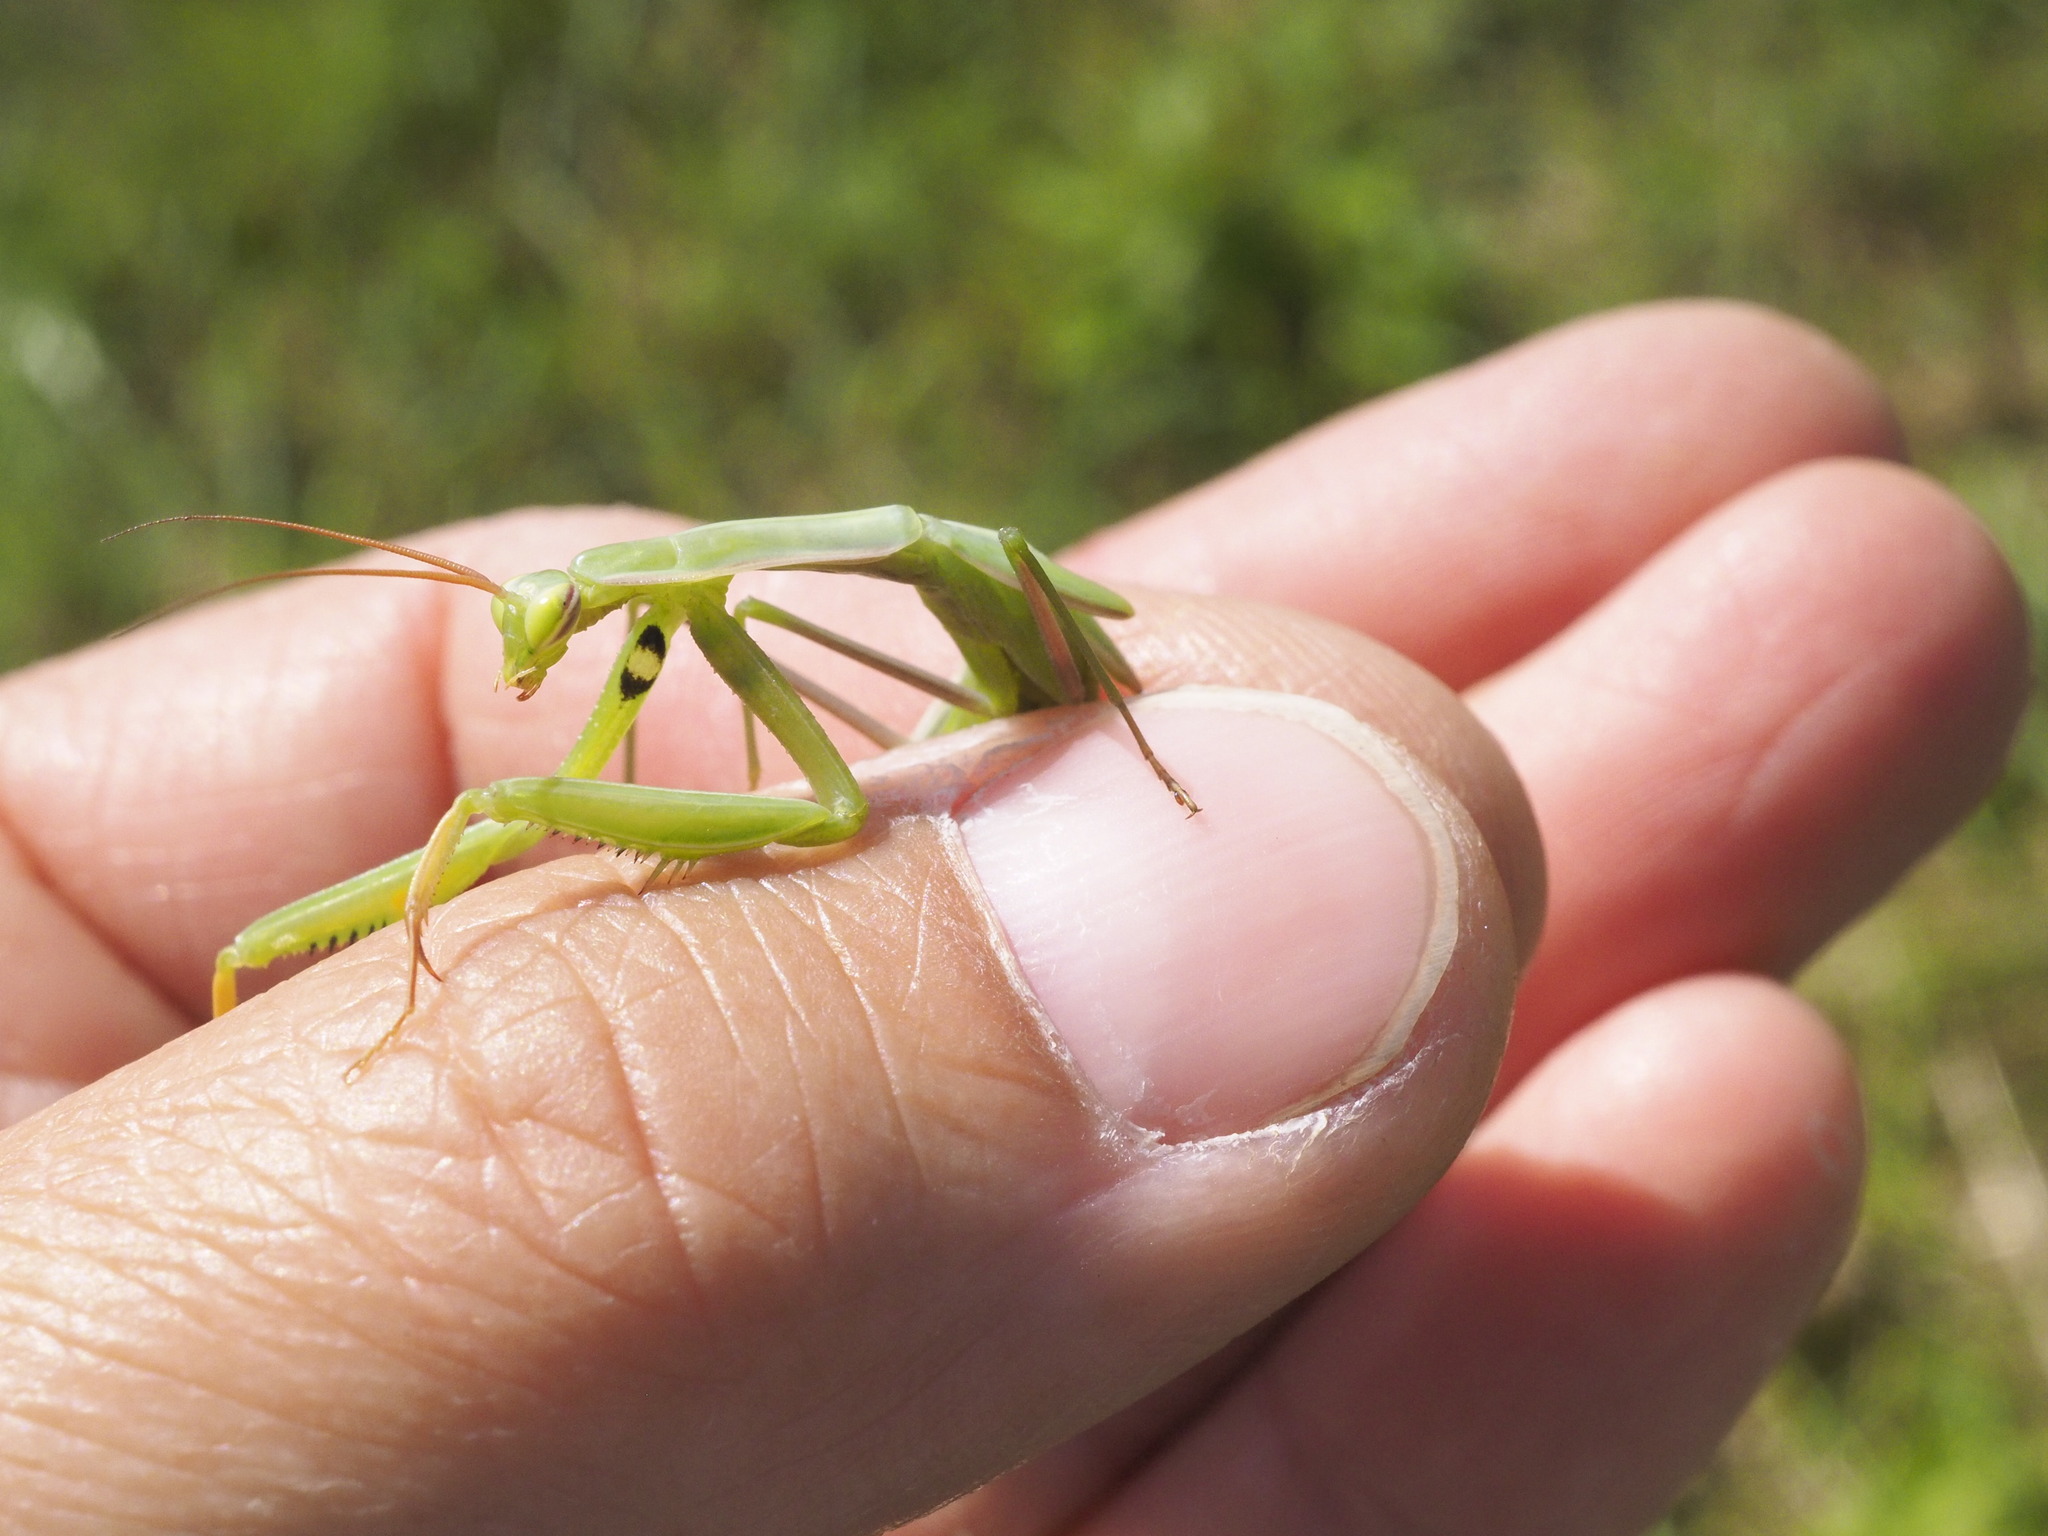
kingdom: Animalia
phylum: Arthropoda
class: Insecta
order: Mantodea
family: Mantidae
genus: Mantis
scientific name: Mantis religiosa
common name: Praying mantis
